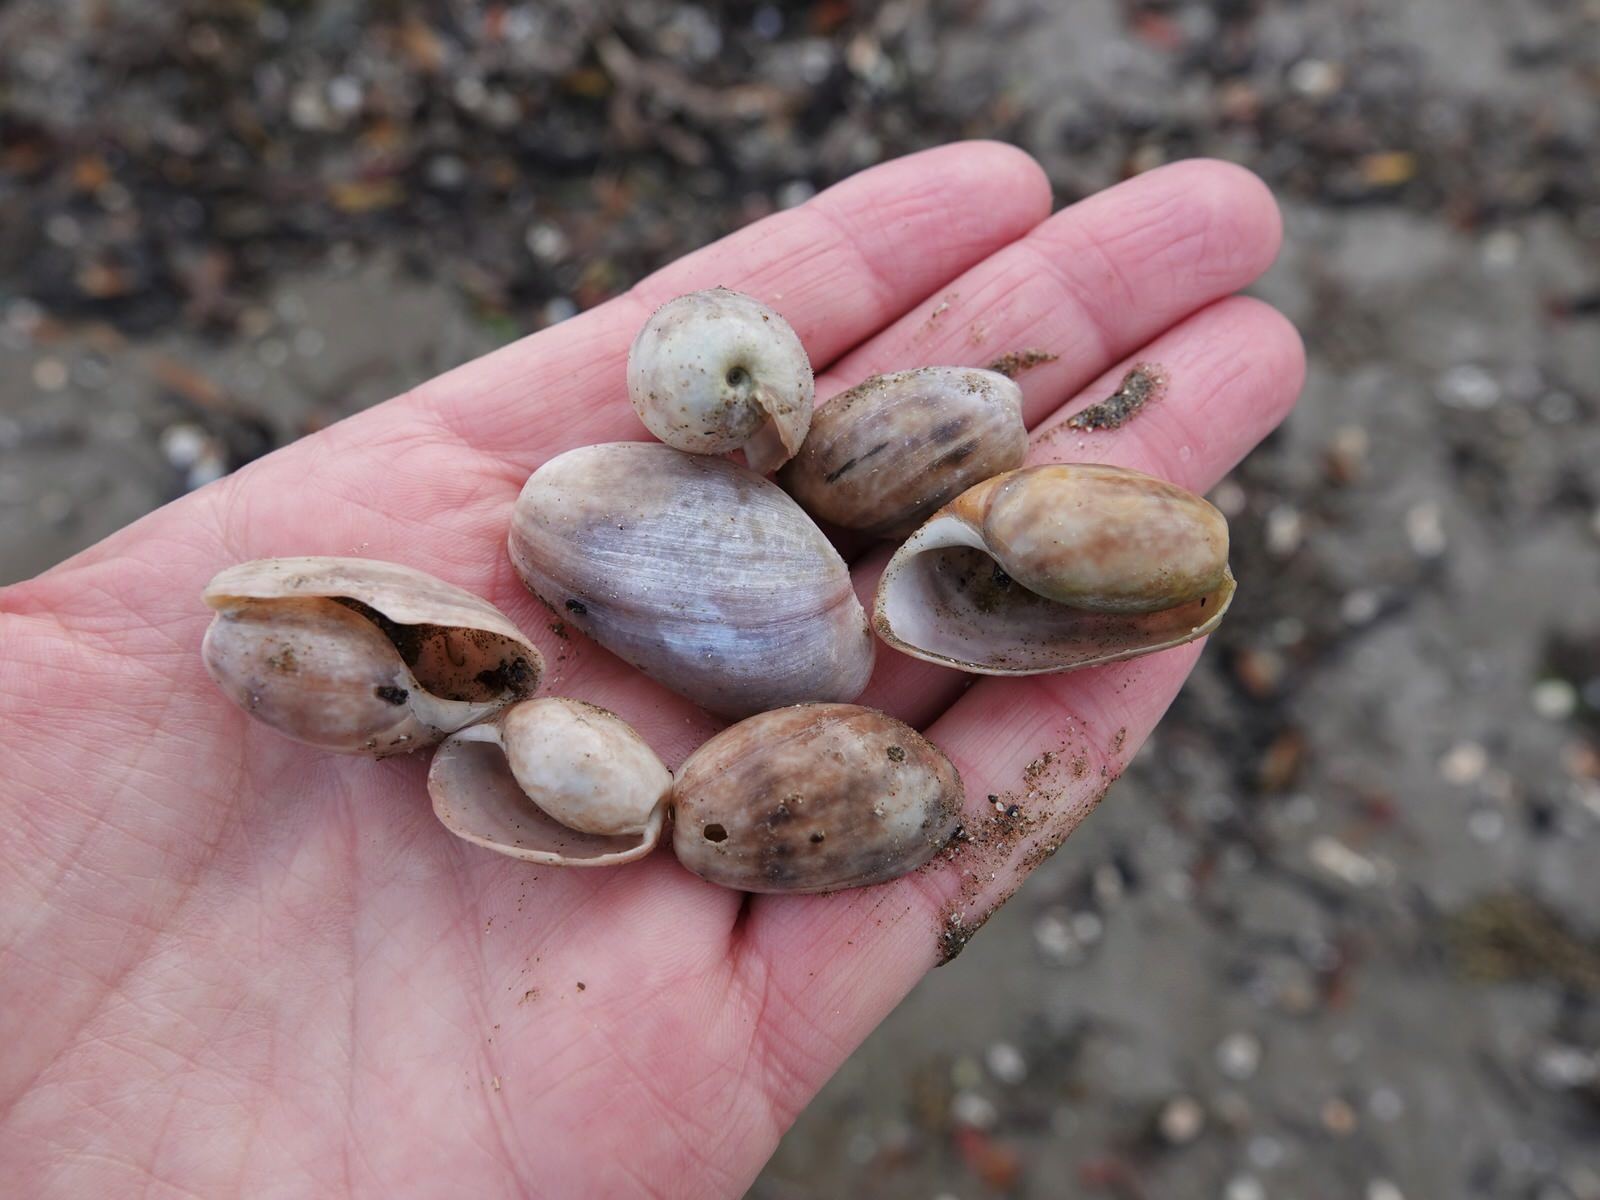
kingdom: Animalia
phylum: Mollusca
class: Gastropoda
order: Cephalaspidea
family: Bullidae
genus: Bulla
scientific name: Bulla quoyii
